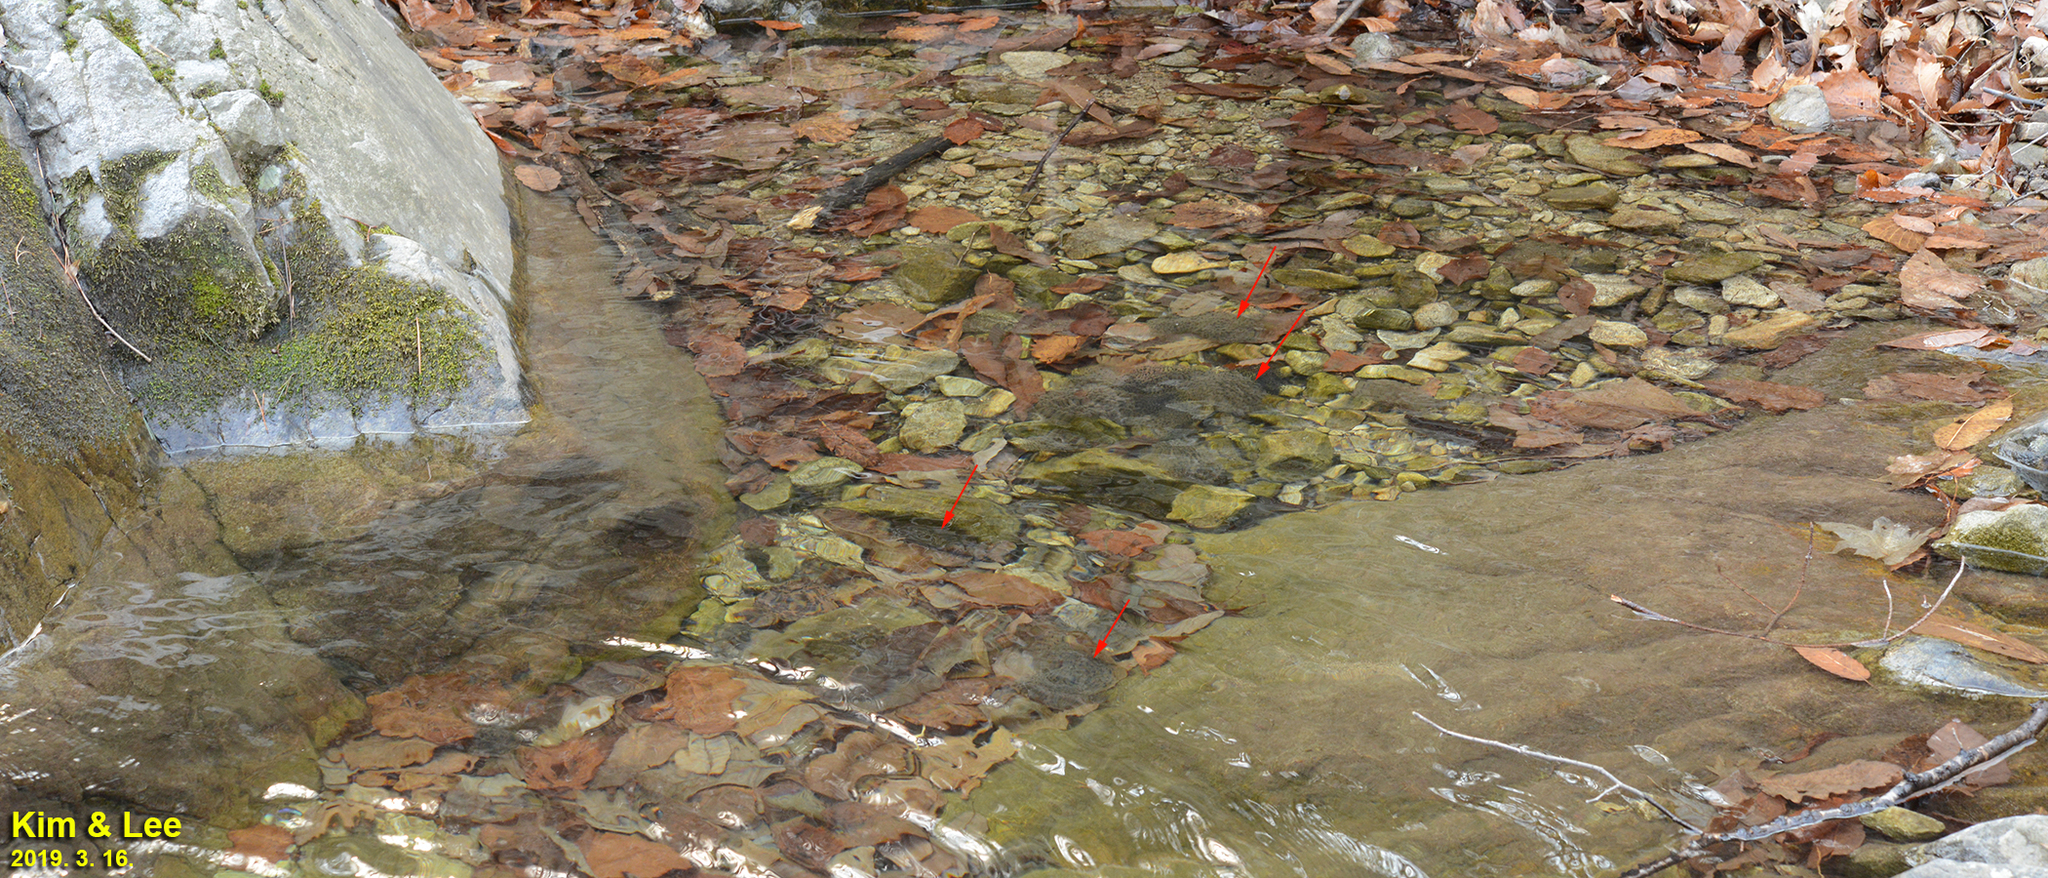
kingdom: Animalia
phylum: Chordata
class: Amphibia
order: Anura
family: Ranidae
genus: Rana
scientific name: Rana huanrenensis
